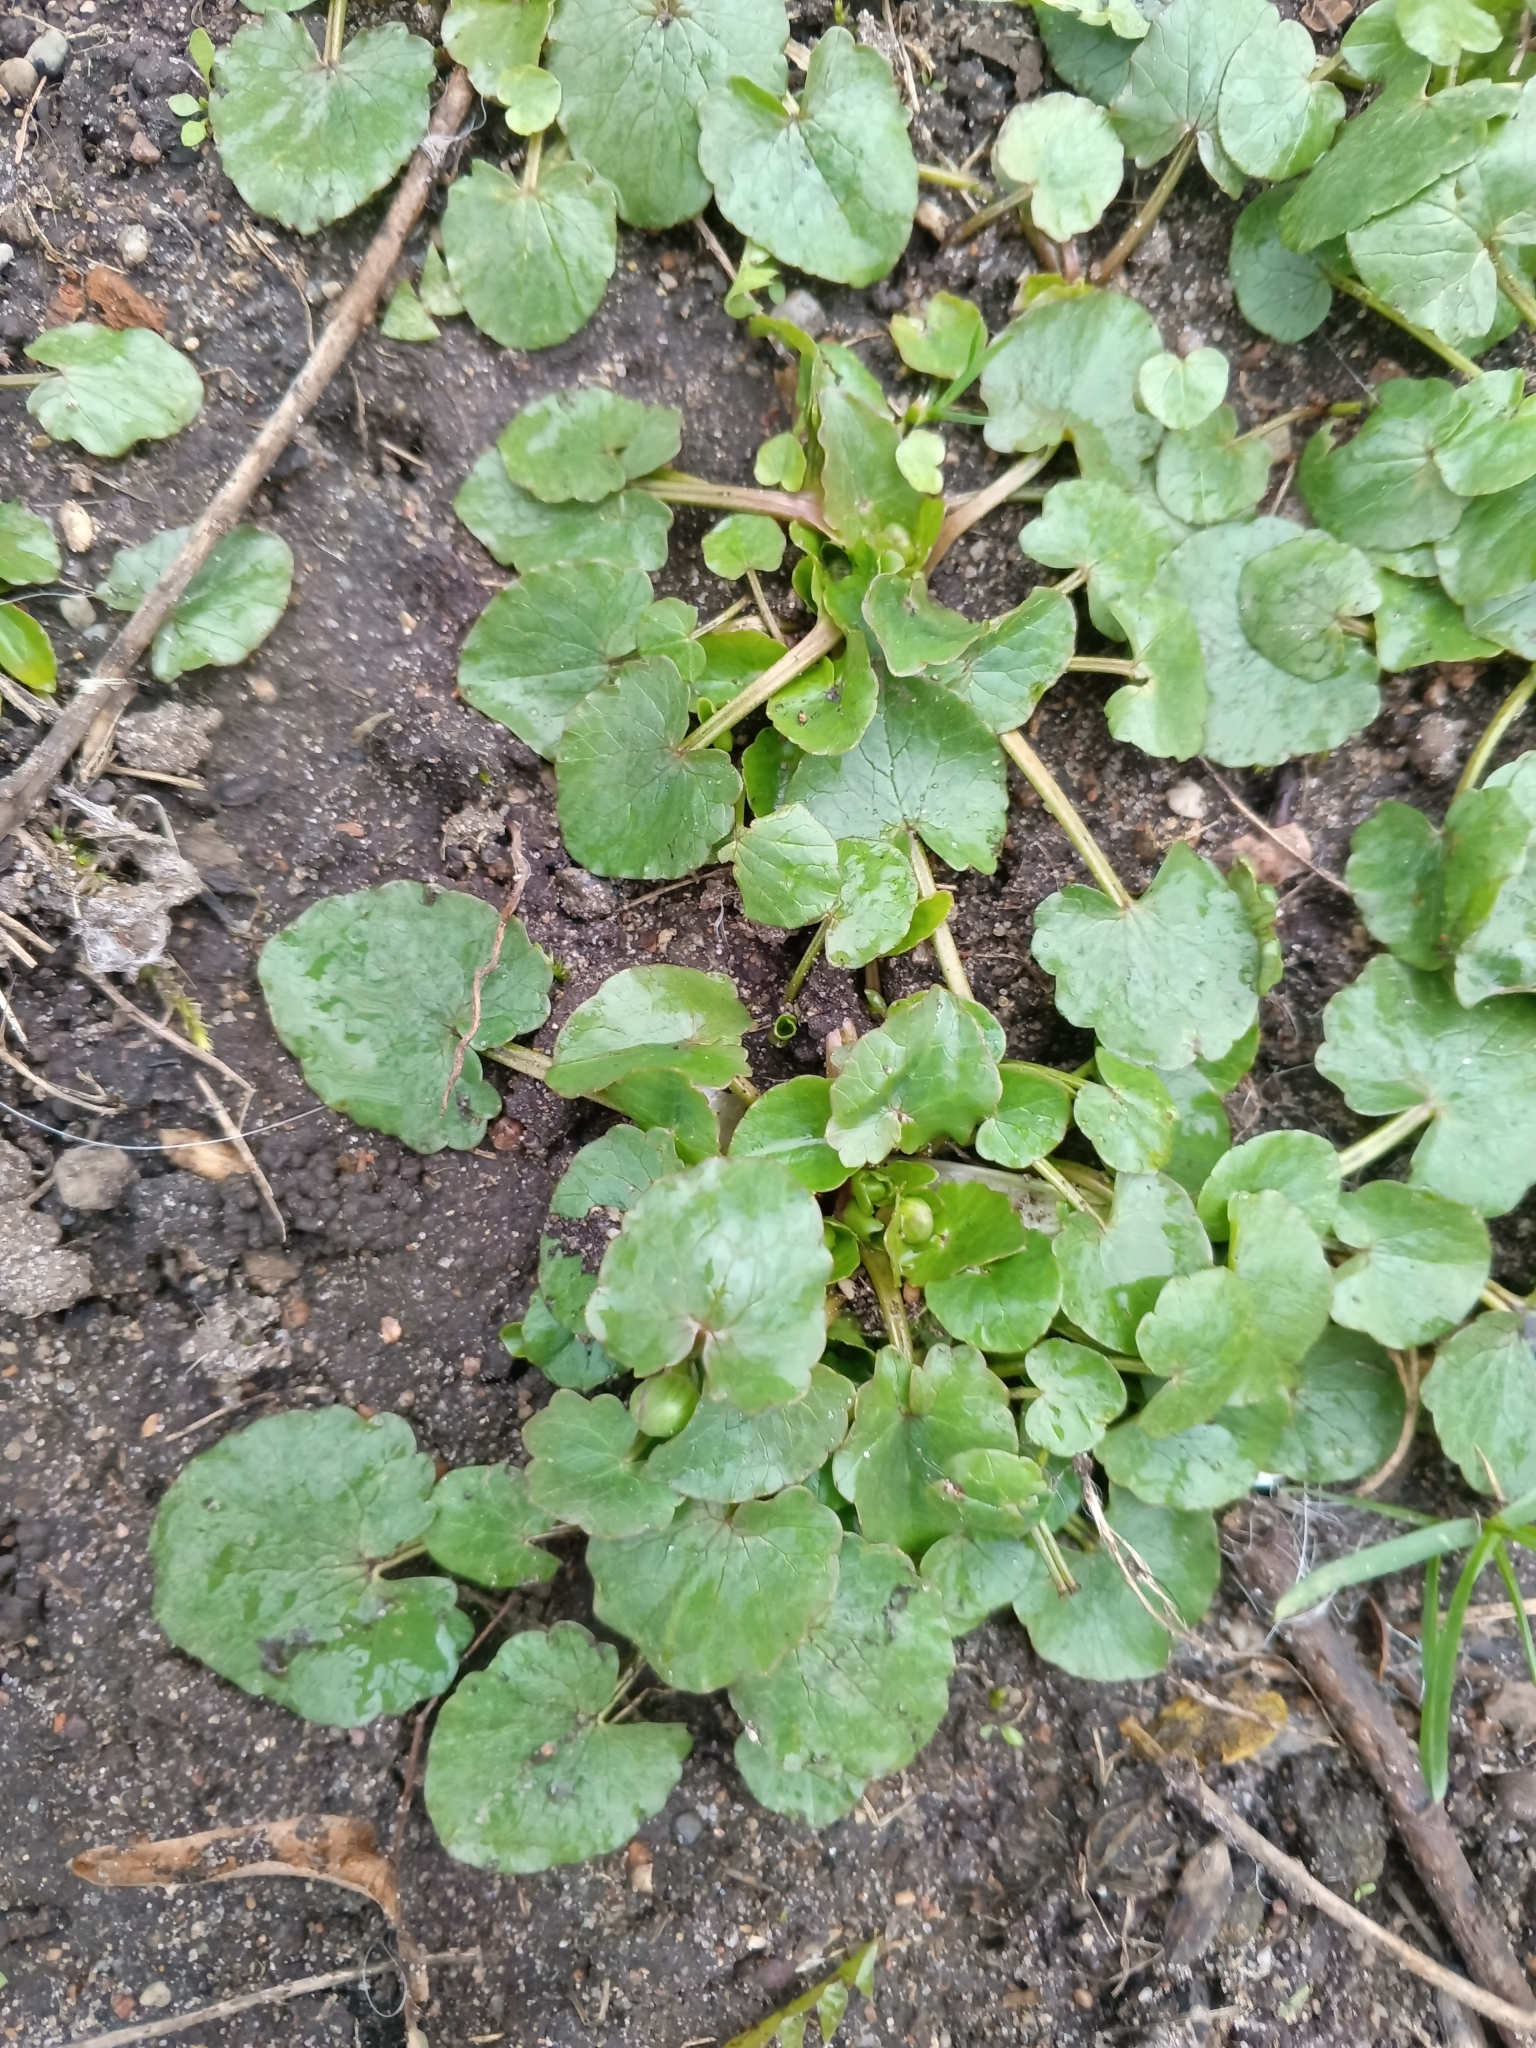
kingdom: Plantae
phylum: Tracheophyta
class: Magnoliopsida
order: Ranunculales
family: Ranunculaceae
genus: Ficaria
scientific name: Ficaria verna
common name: Lesser celandine
